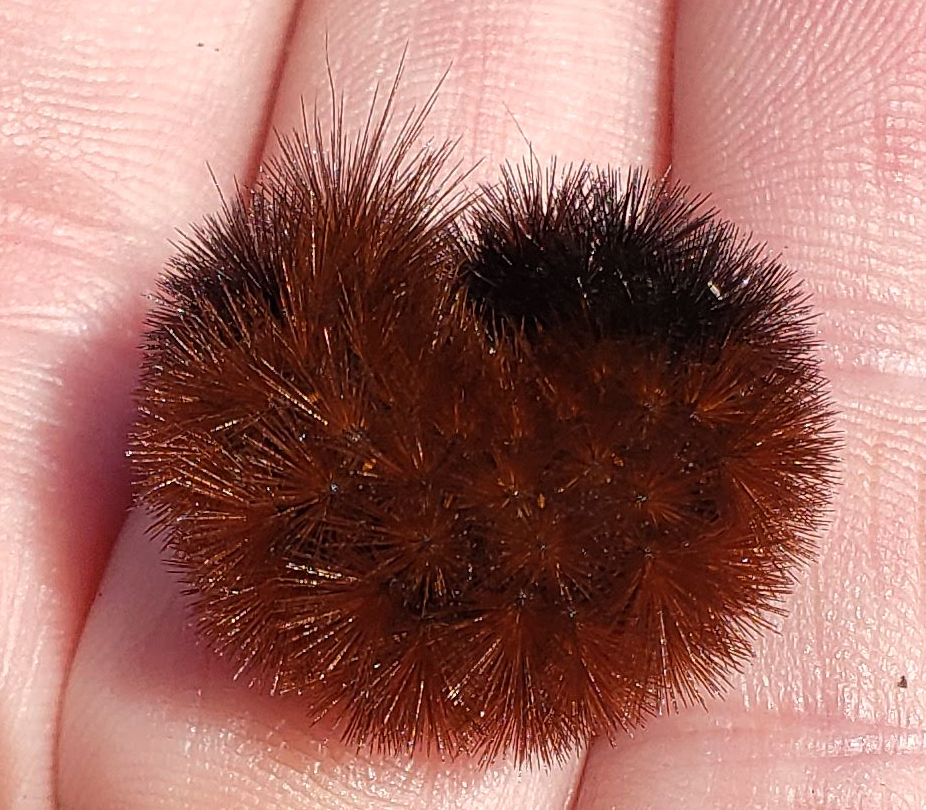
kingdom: Animalia
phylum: Arthropoda
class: Insecta
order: Lepidoptera
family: Erebidae
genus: Pyrrharctia
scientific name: Pyrrharctia isabella
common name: Isabella tiger moth
